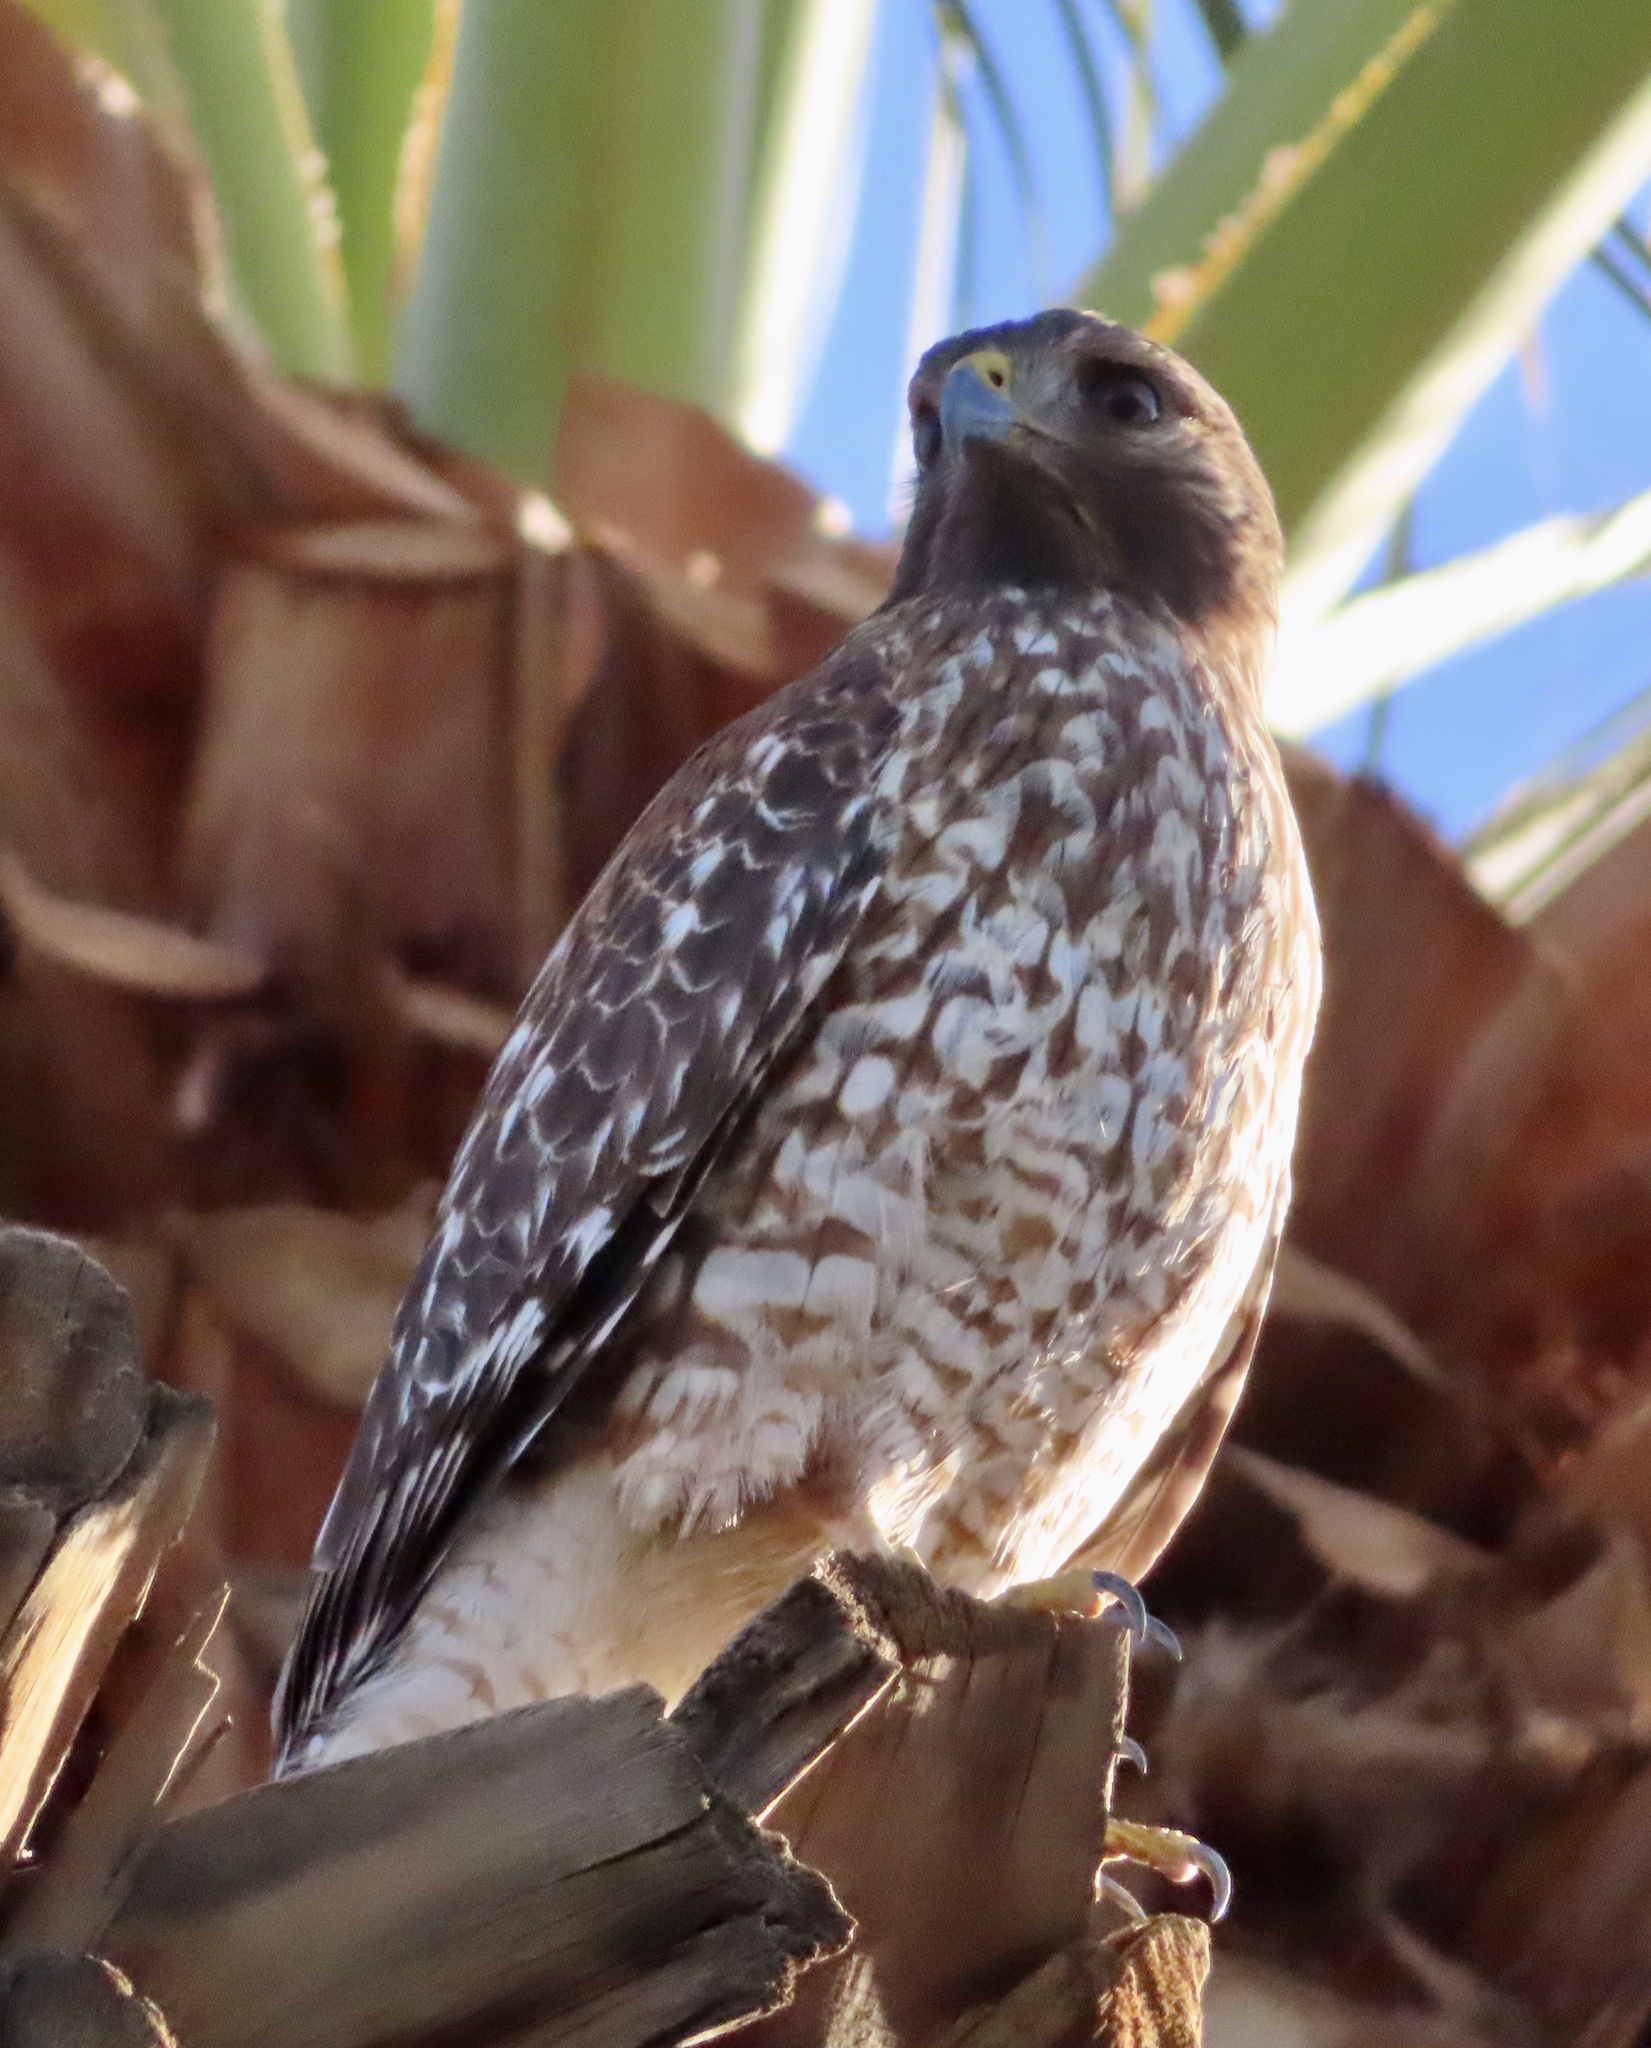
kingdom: Animalia
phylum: Chordata
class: Aves
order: Accipitriformes
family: Accipitridae
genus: Buteo
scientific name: Buteo lineatus
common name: Red-shouldered hawk
